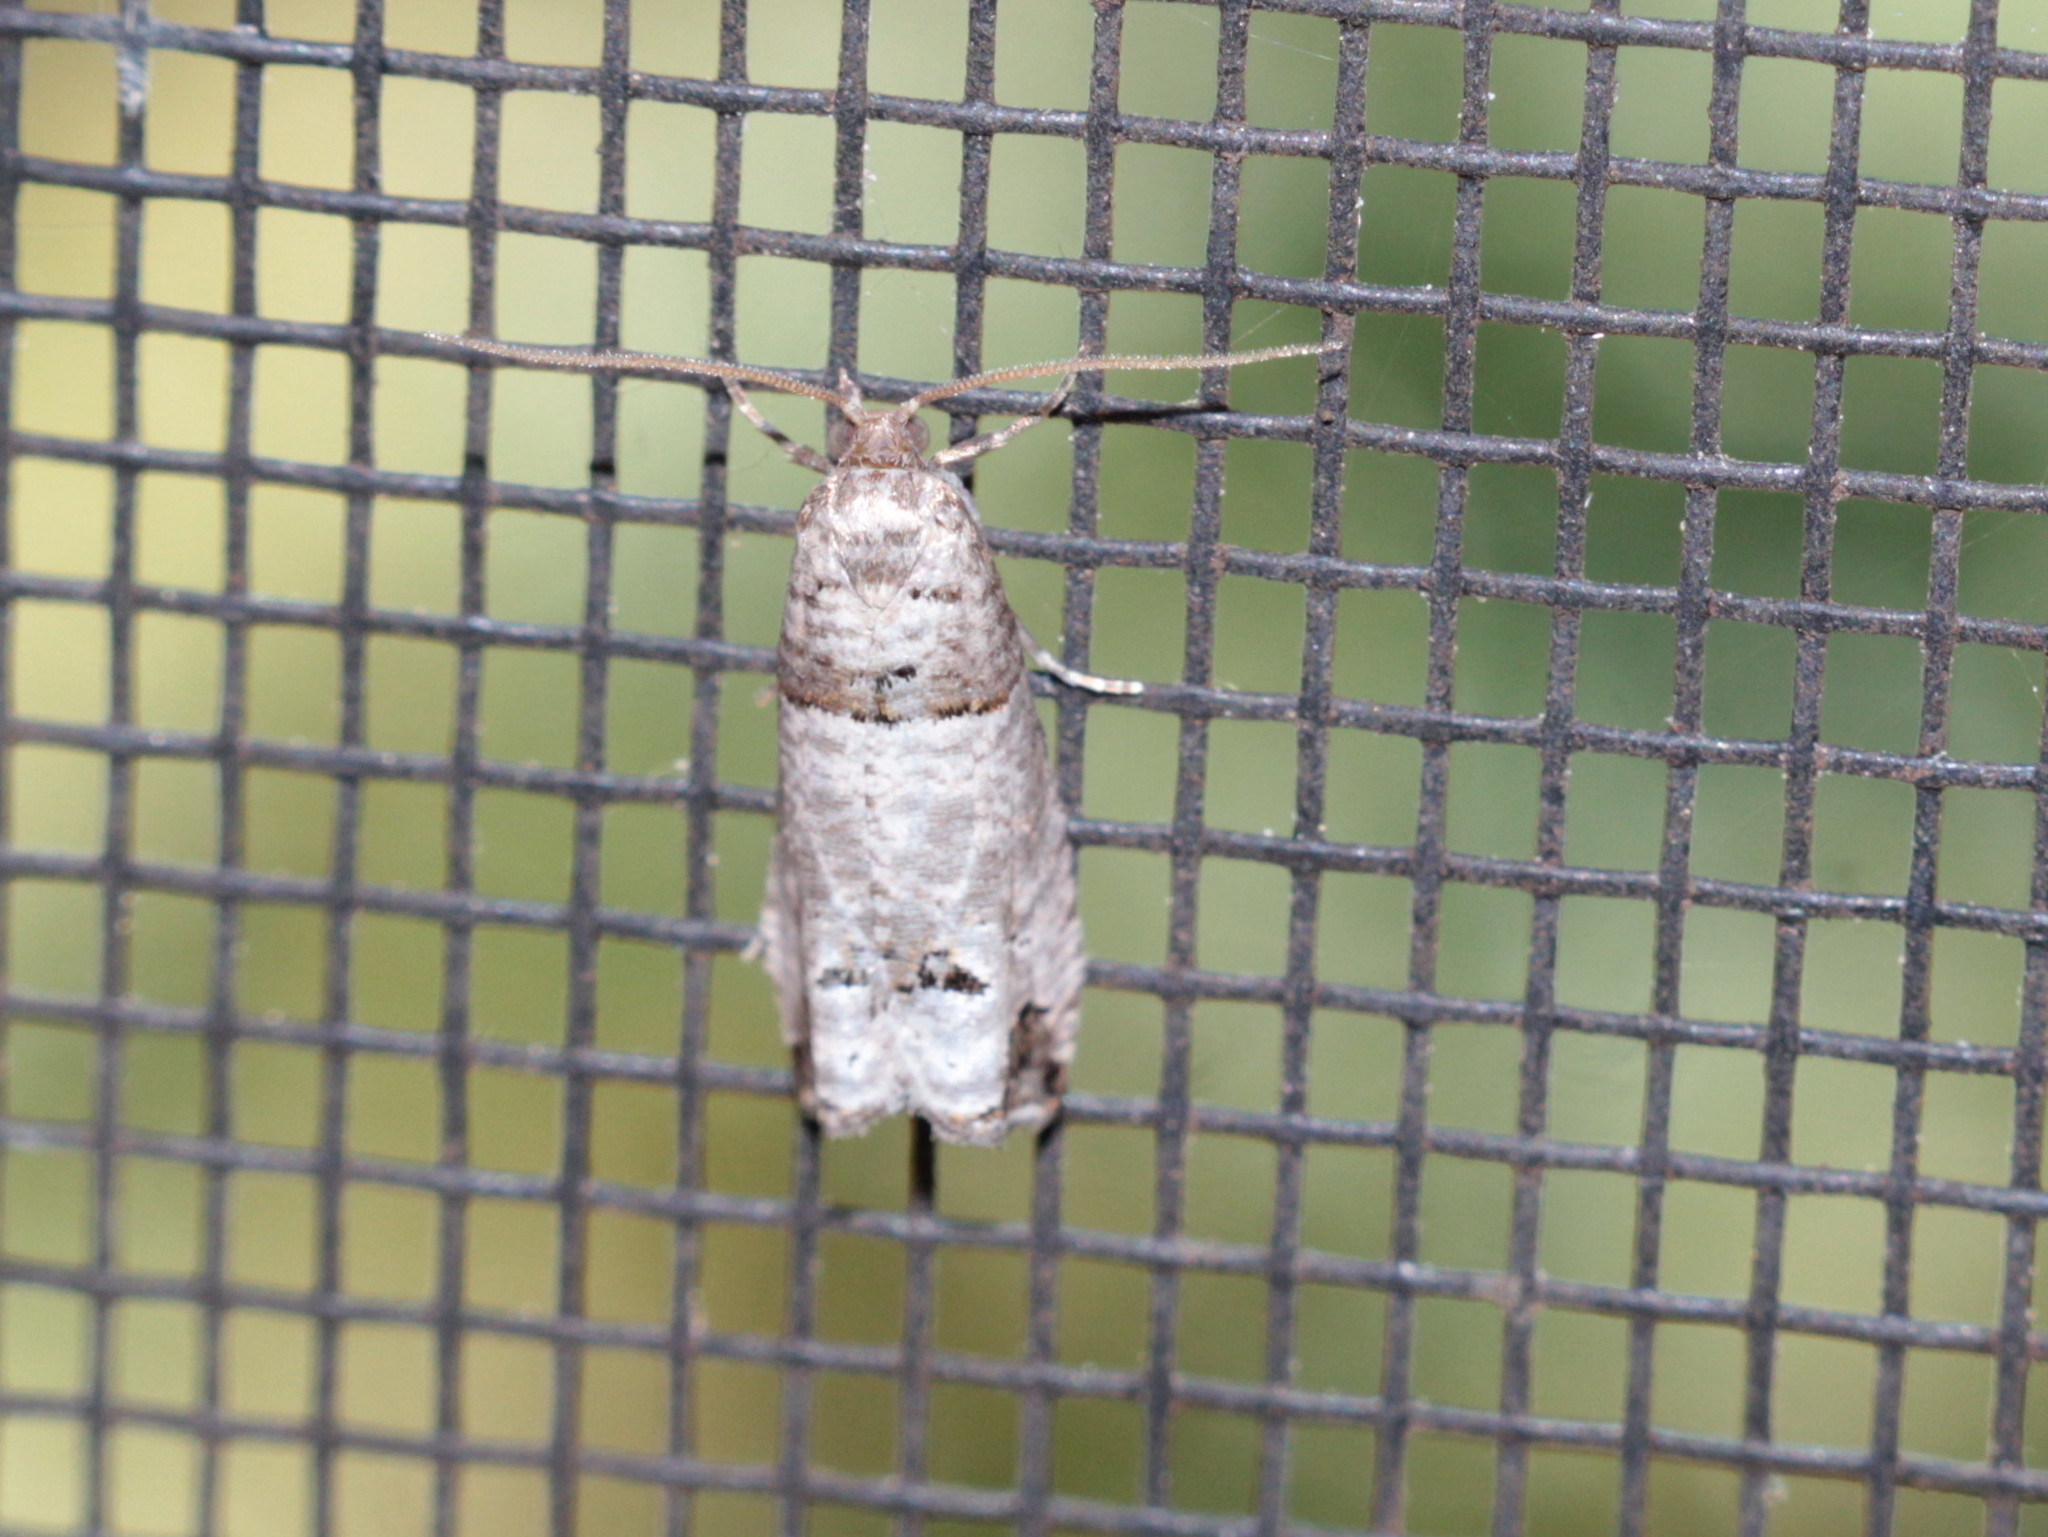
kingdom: Animalia
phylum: Arthropoda
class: Insecta
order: Lepidoptera
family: Tortricidae
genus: Notocelia
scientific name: Notocelia culminana
